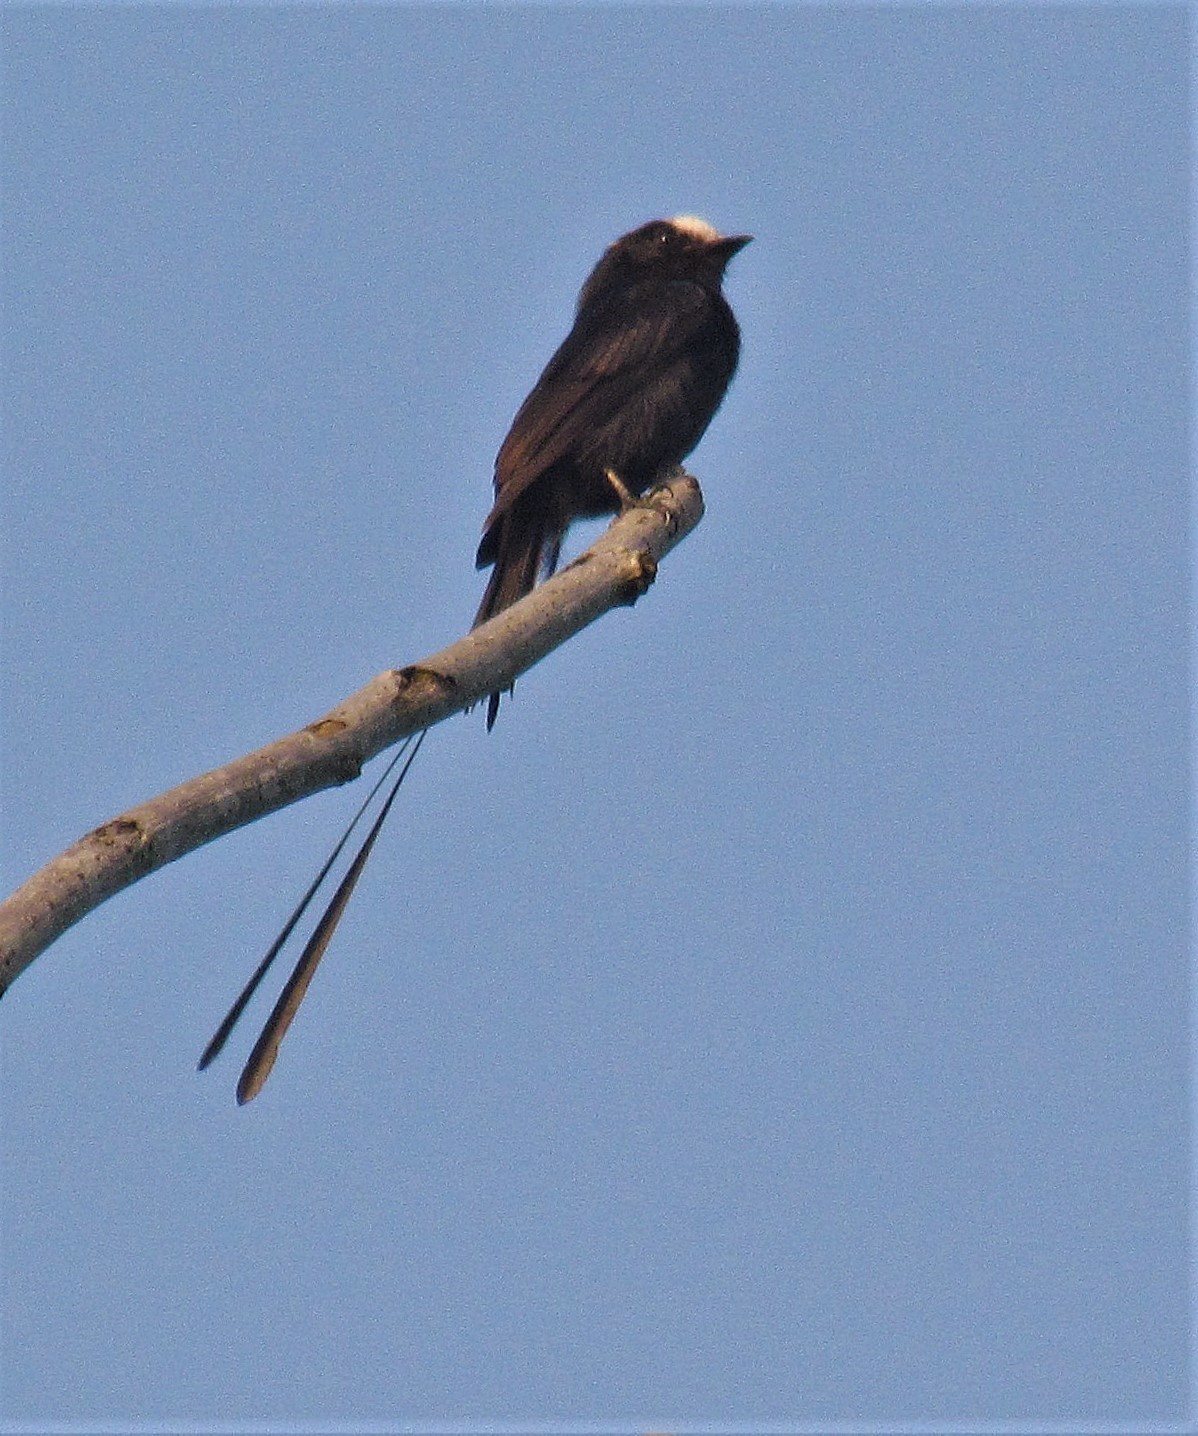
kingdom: Animalia
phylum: Chordata
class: Aves
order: Passeriformes
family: Tyrannidae
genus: Colonia
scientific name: Colonia colonus
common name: Long-tailed tyrant
